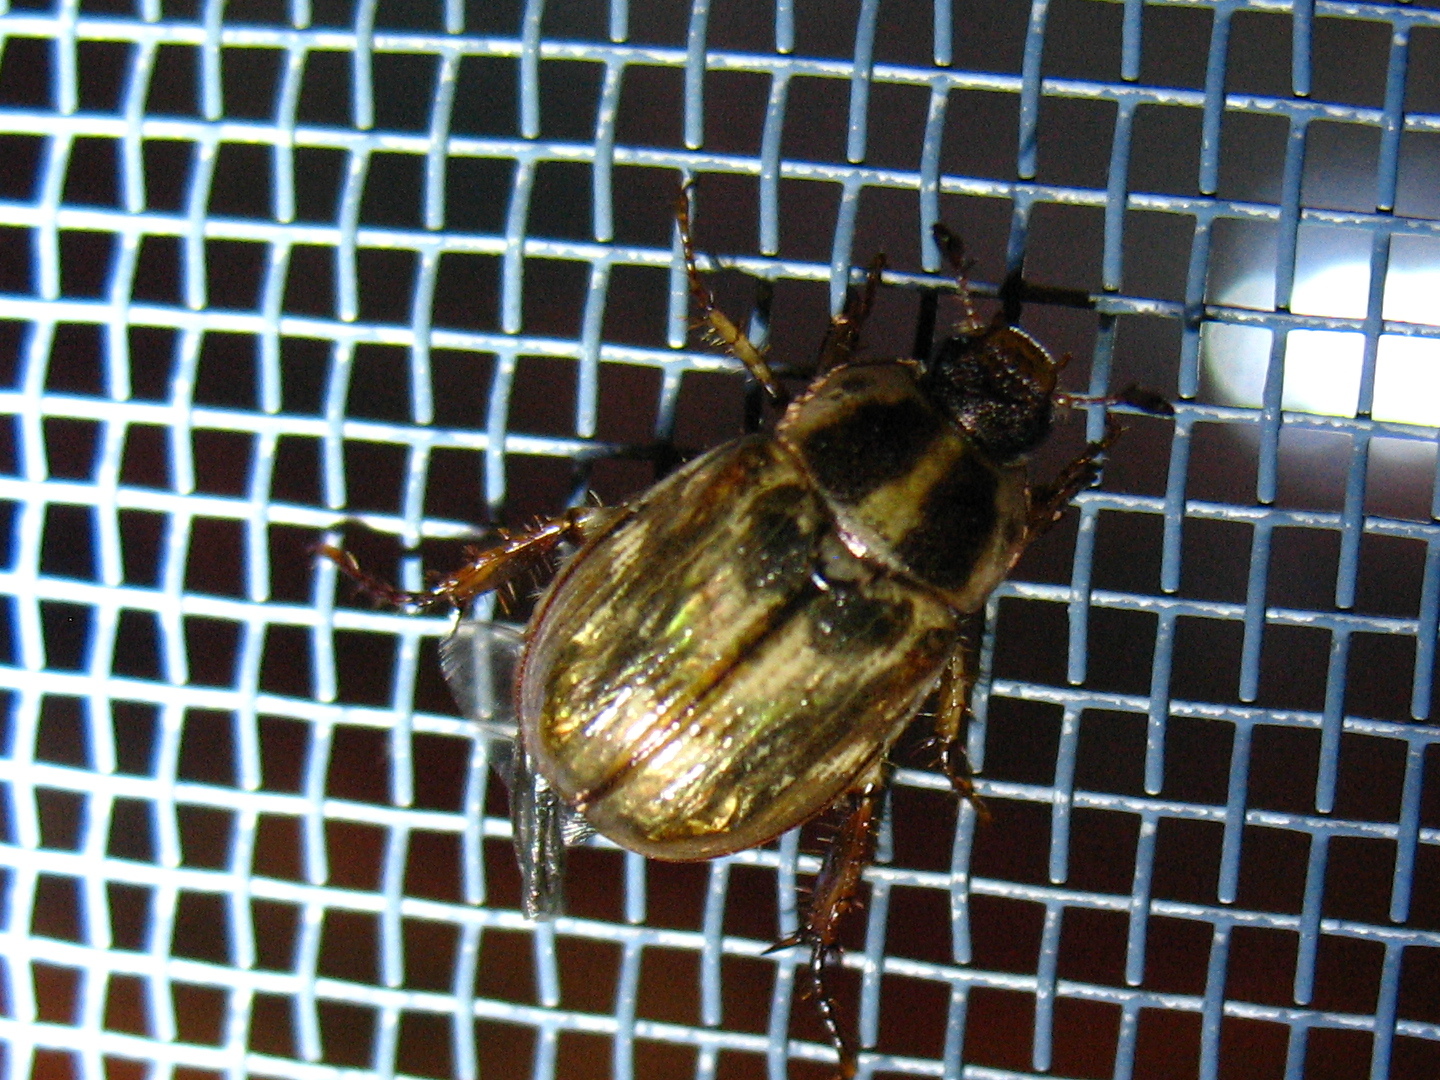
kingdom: Animalia
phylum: Arthropoda
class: Insecta
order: Coleoptera
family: Scarabaeidae
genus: Exomala
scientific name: Exomala orientalis
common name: Oriental beetle
